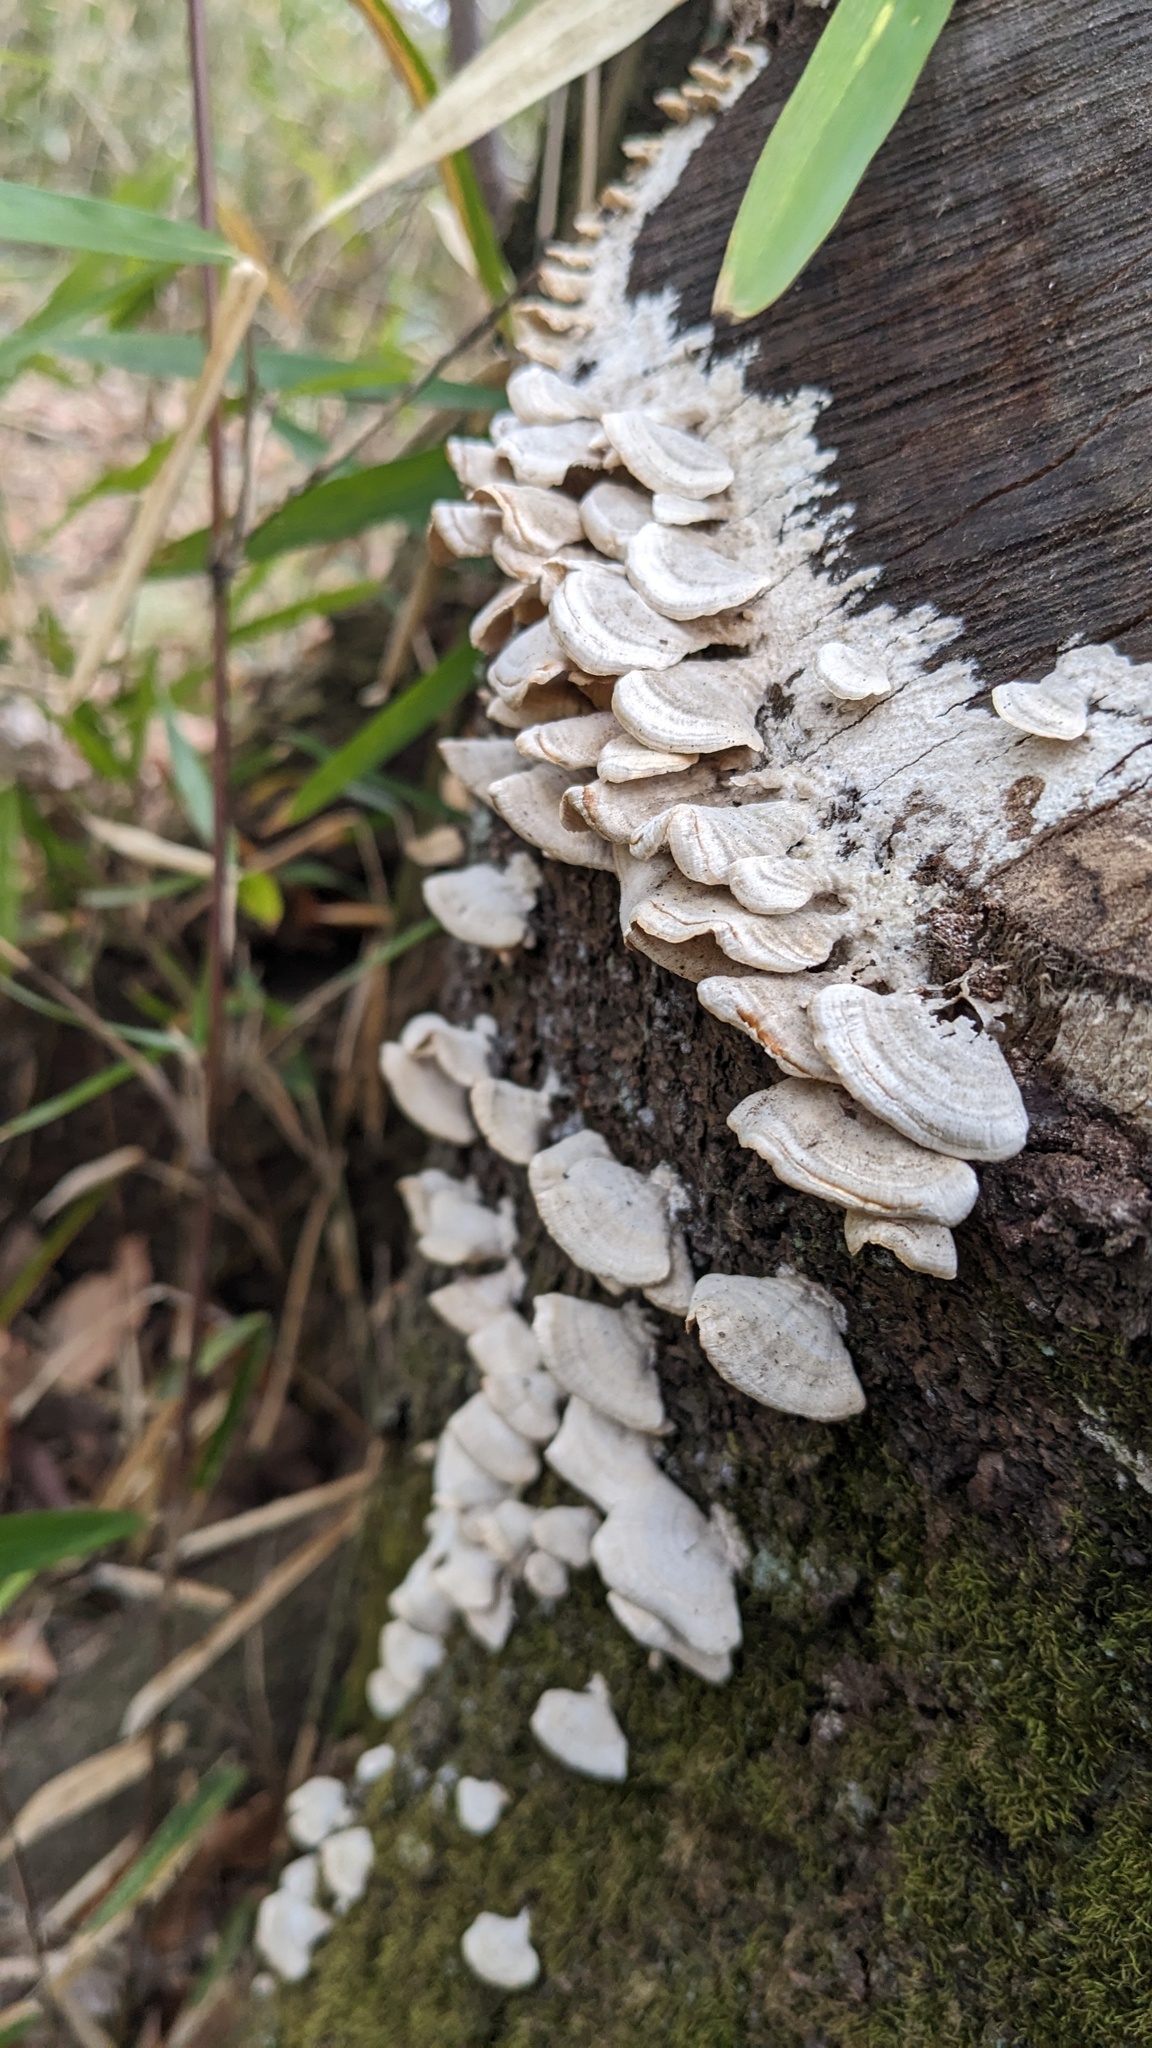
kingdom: Fungi
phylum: Basidiomycota
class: Agaricomycetes
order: Hymenochaetales
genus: Trichaptum
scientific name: Trichaptum biforme
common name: Violet-toothed polypore
